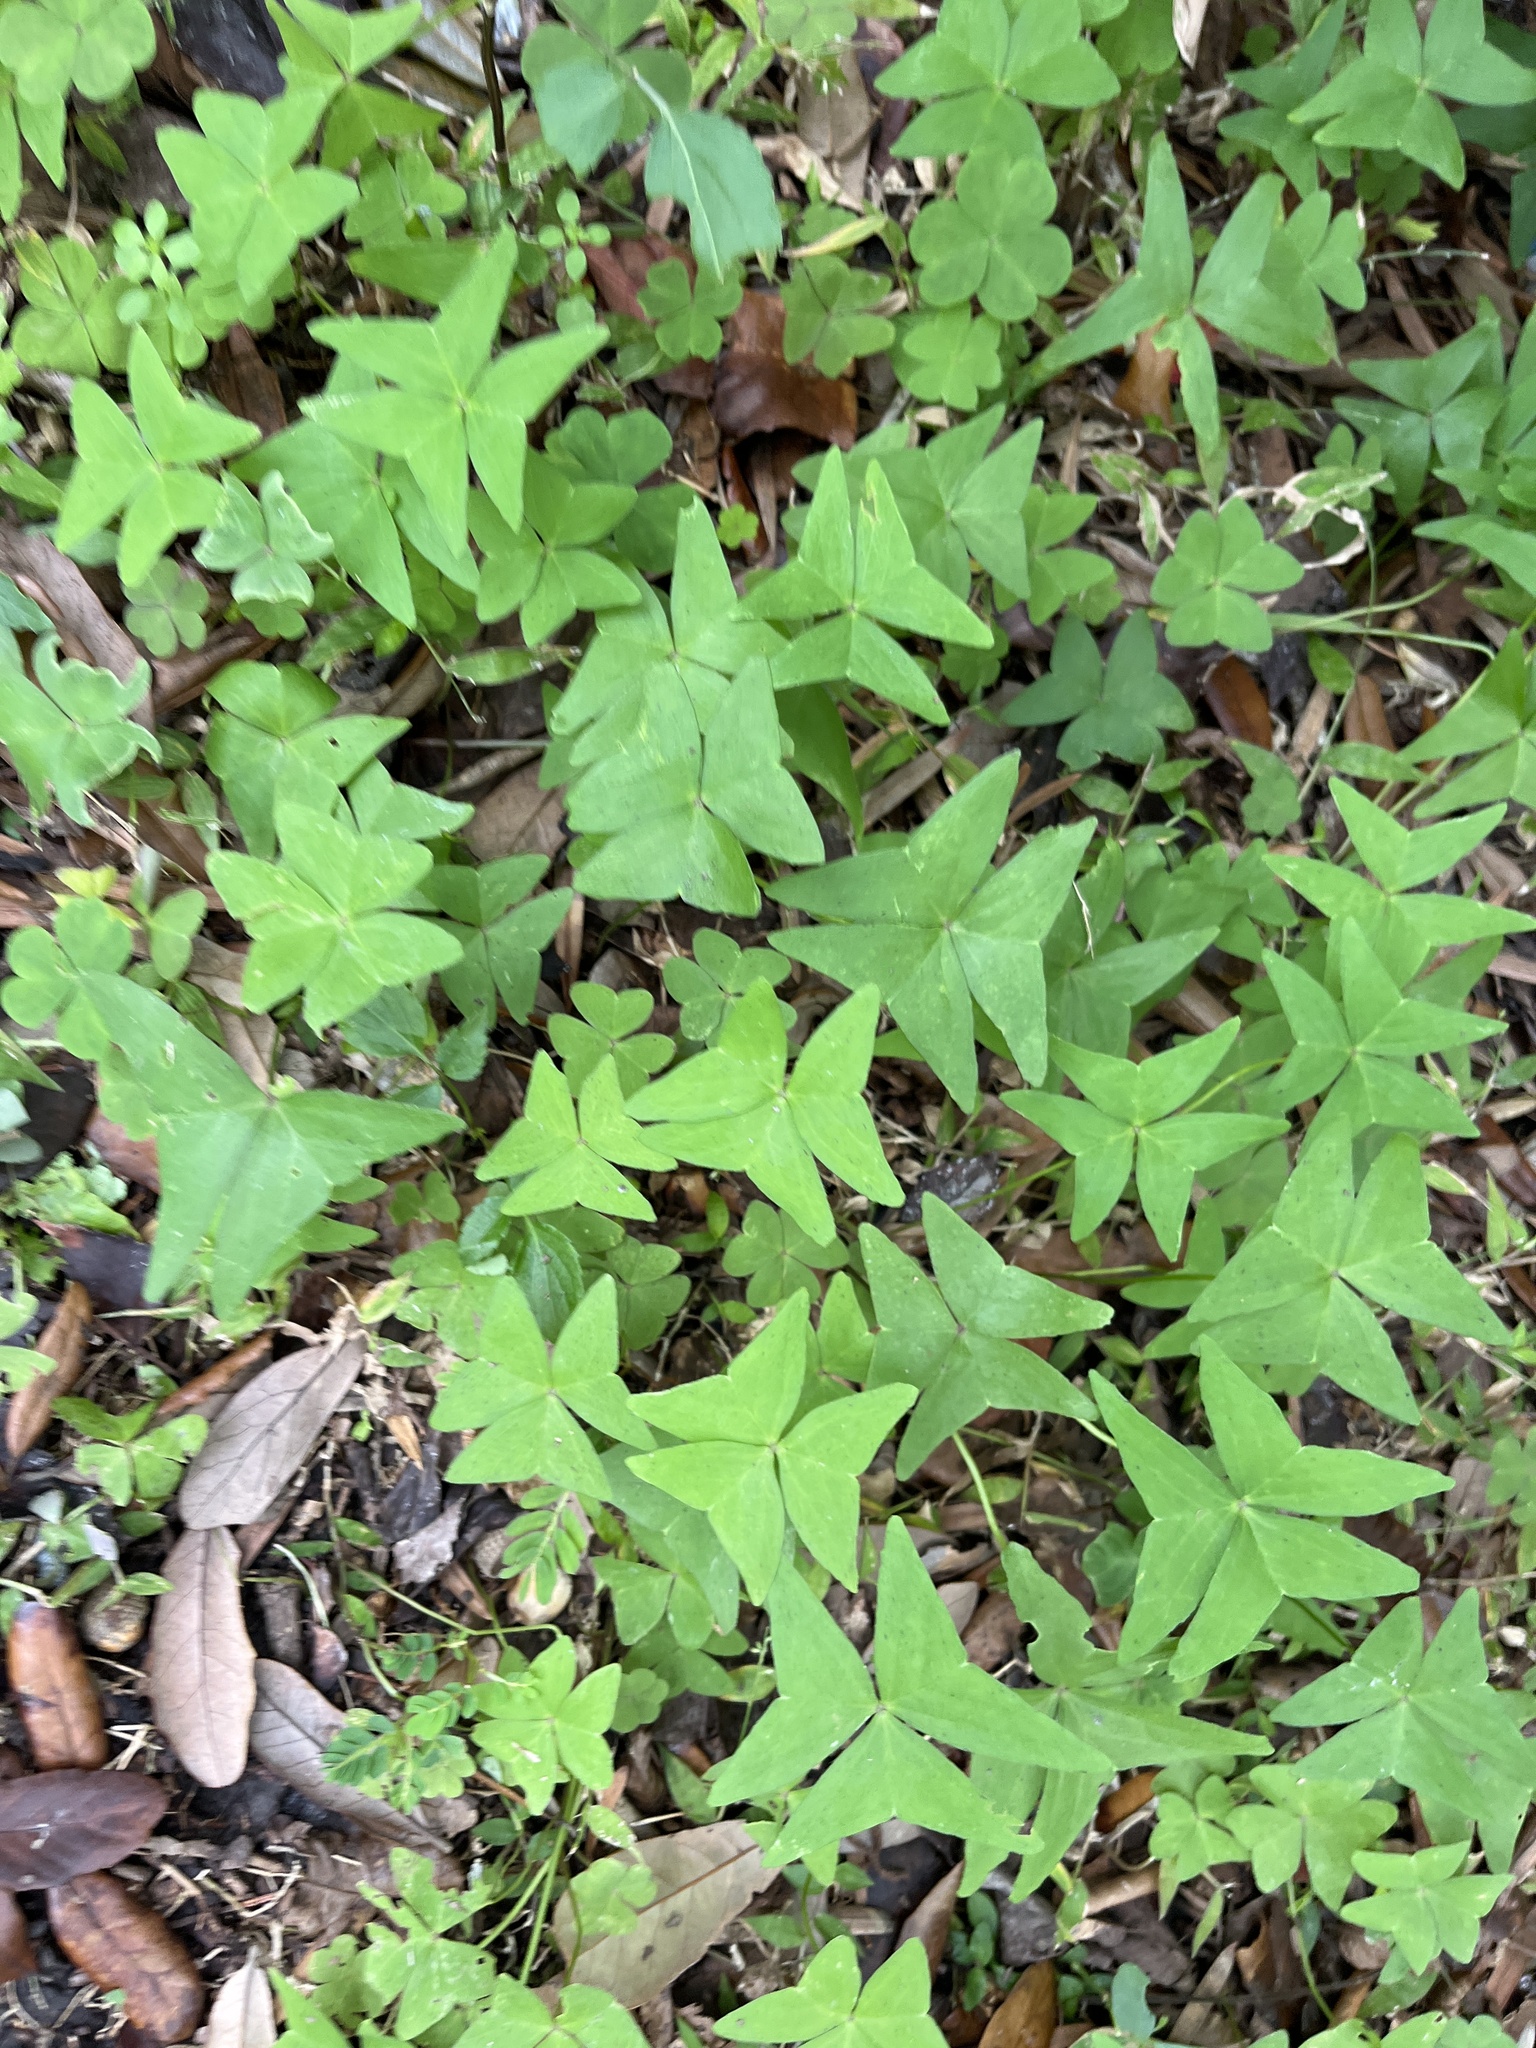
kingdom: Plantae
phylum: Tracheophyta
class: Magnoliopsida
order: Oxalidales
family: Oxalidaceae
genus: Oxalis
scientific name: Oxalis intermedia
